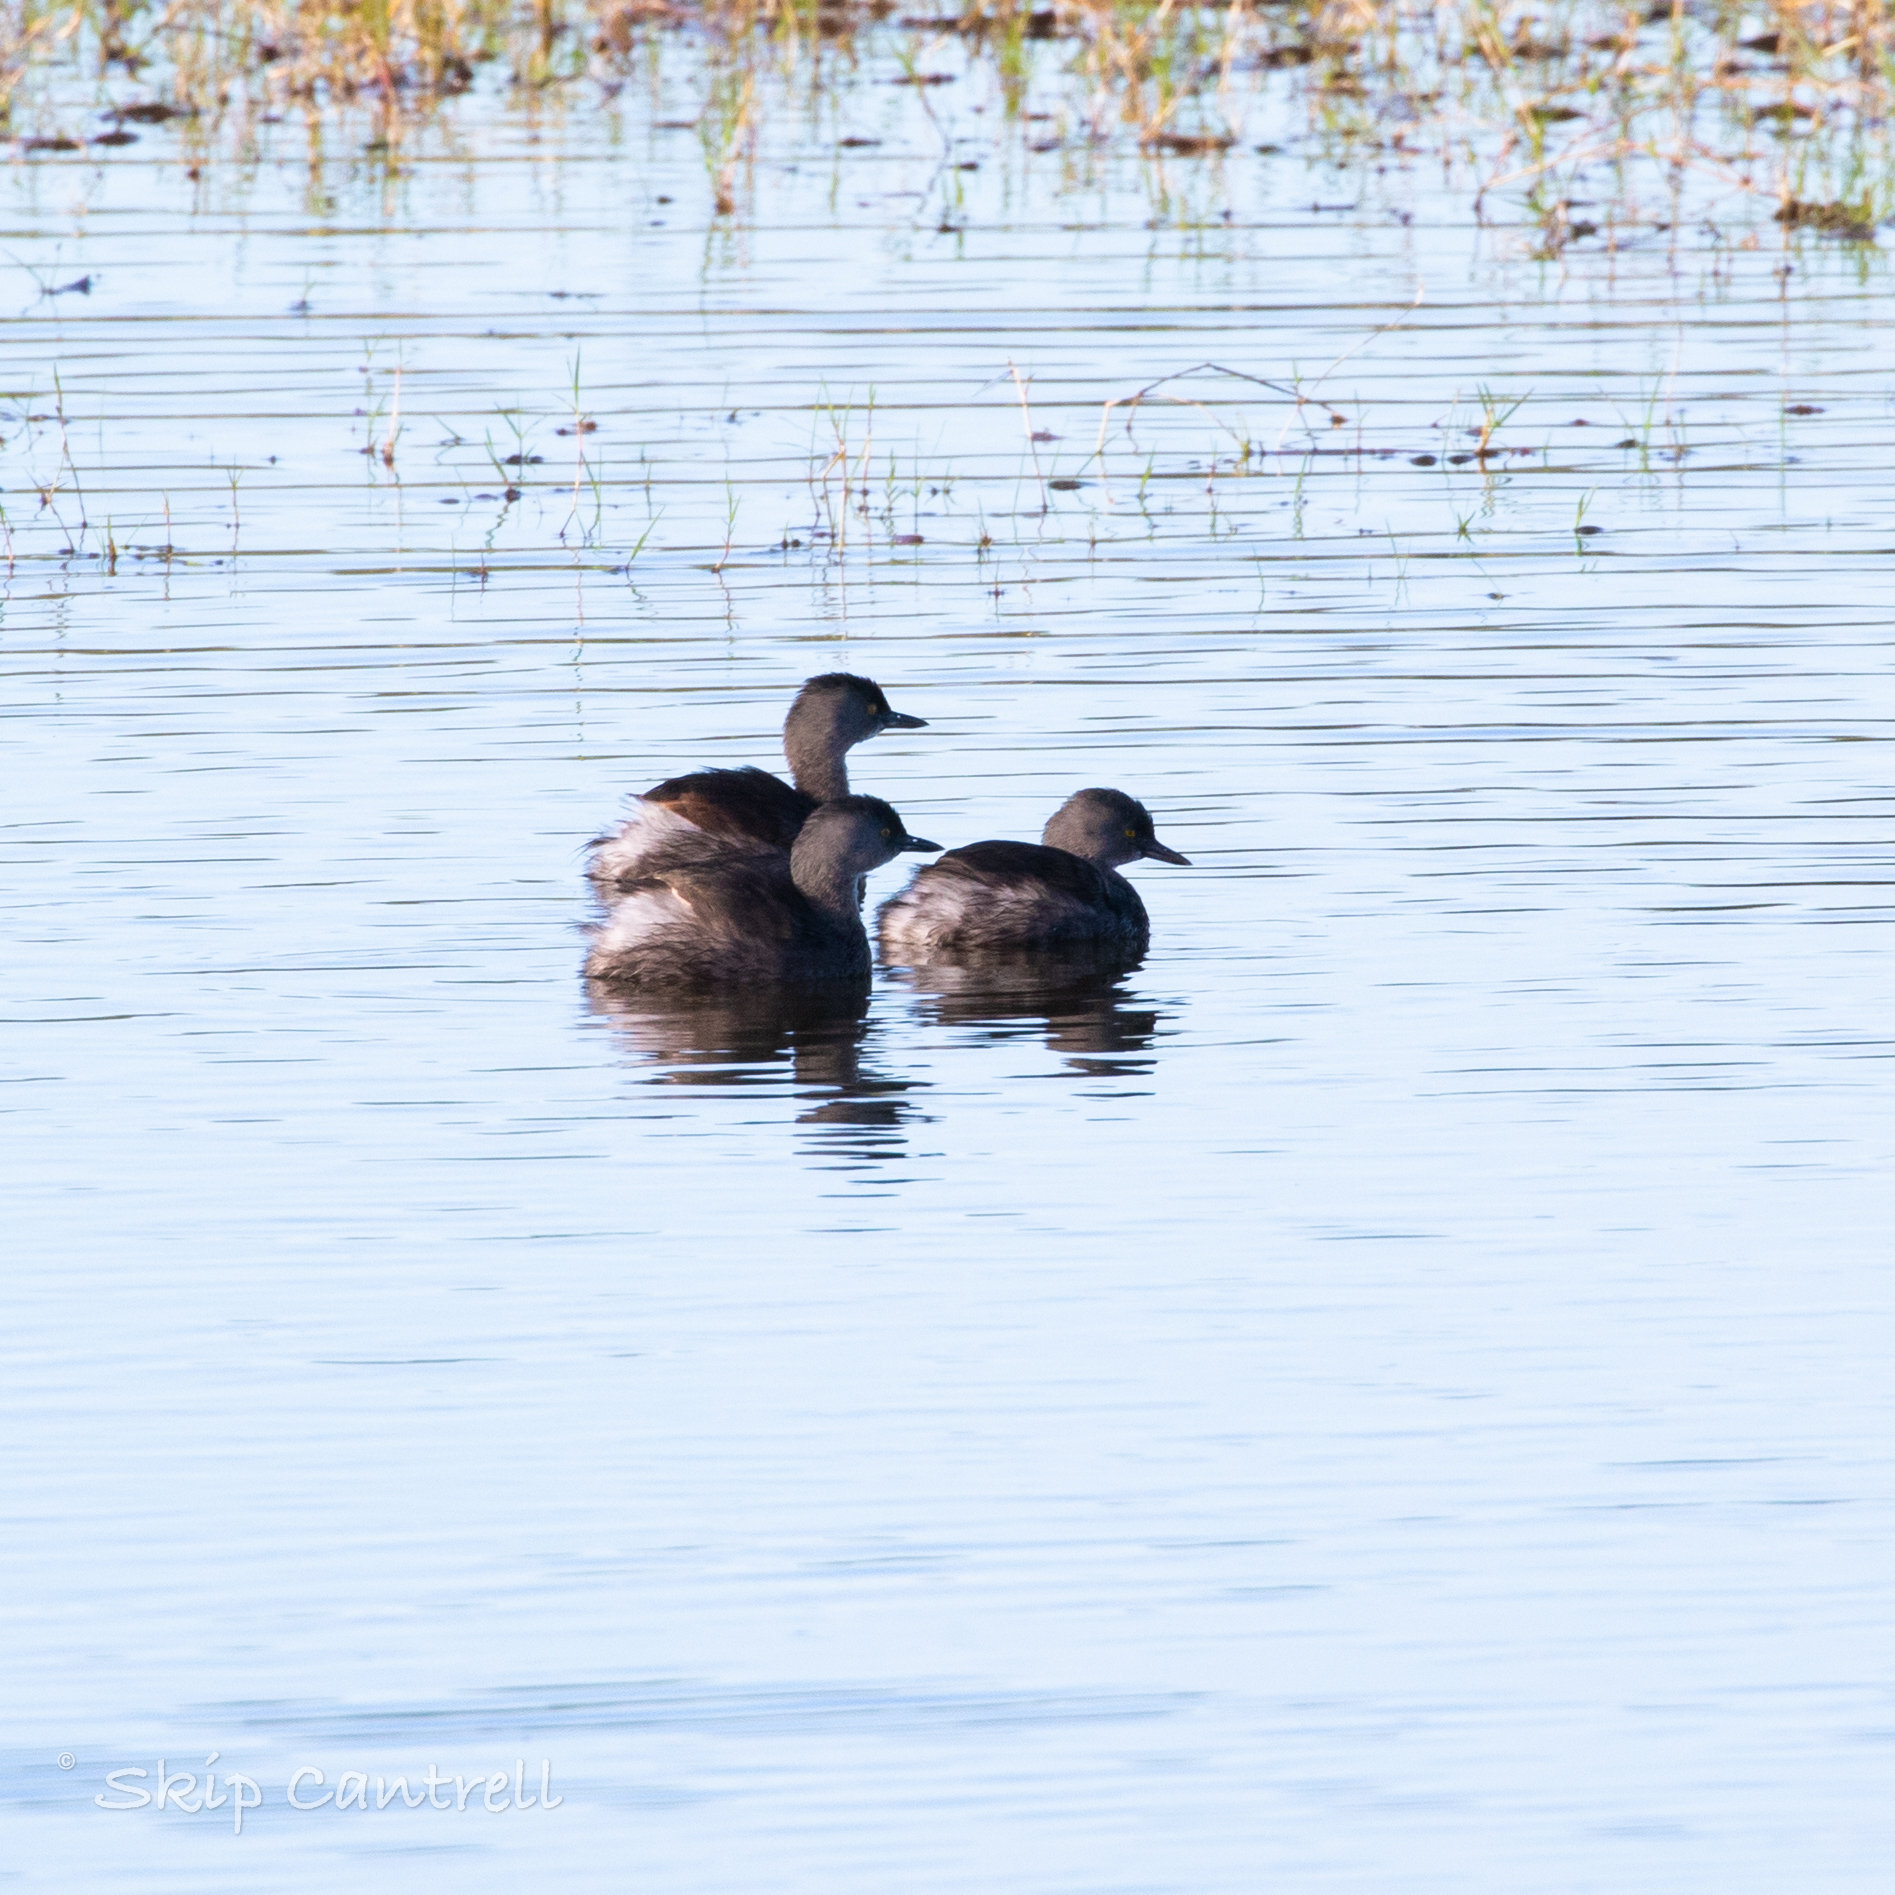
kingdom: Animalia
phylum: Chordata
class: Aves
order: Podicipediformes
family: Podicipedidae
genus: Tachybaptus
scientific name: Tachybaptus dominicus
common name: Least grebe
